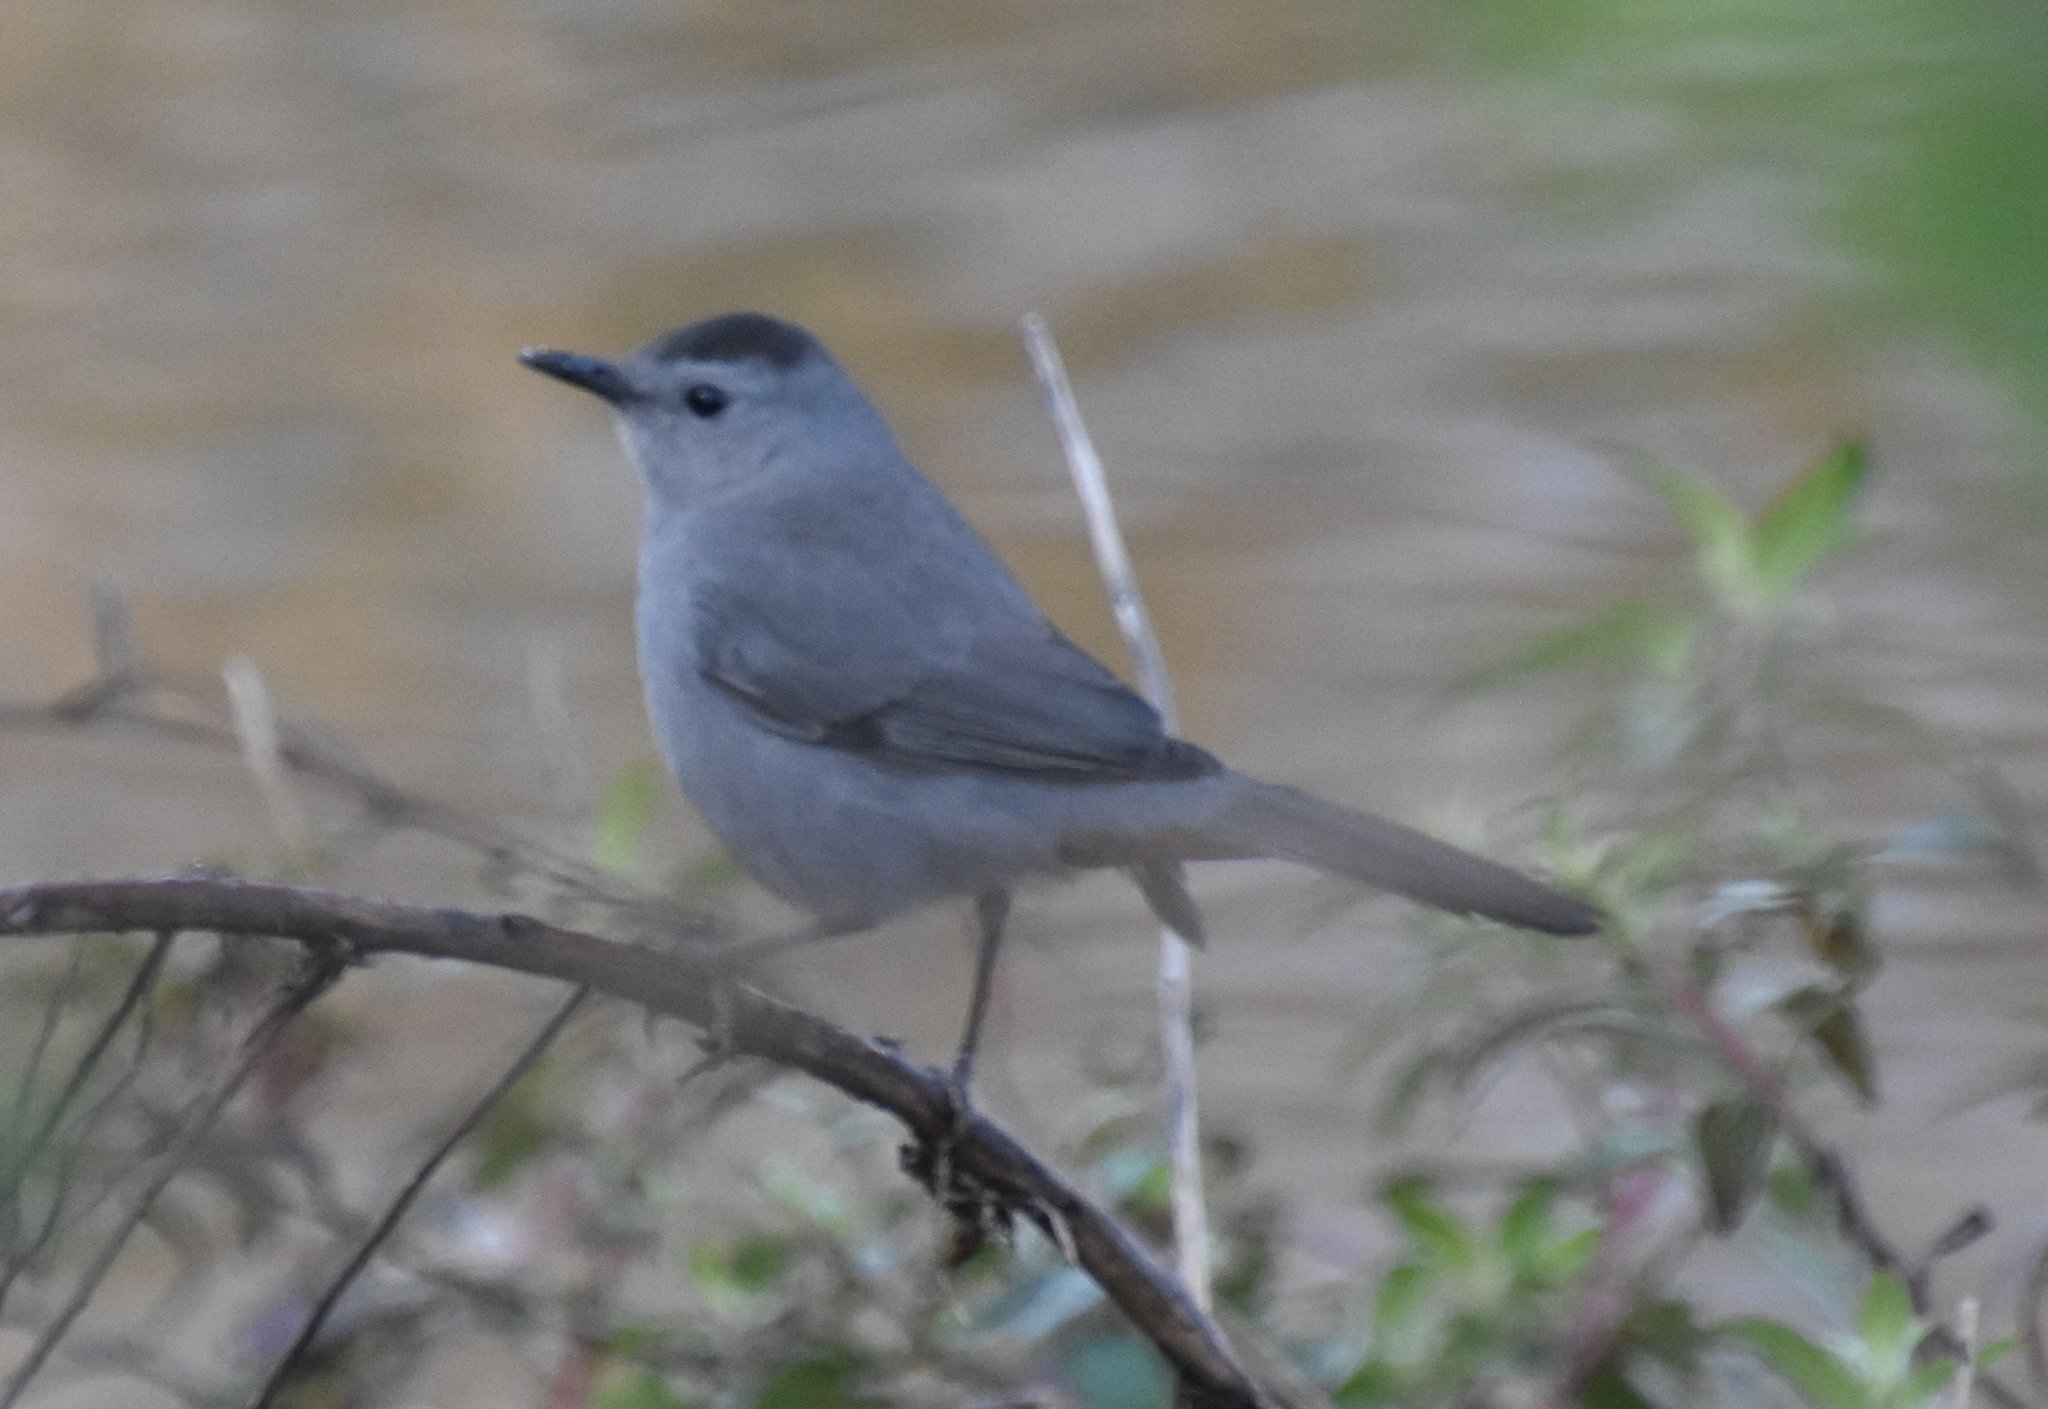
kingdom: Animalia
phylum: Chordata
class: Aves
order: Passeriformes
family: Mimidae
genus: Dumetella
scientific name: Dumetella carolinensis
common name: Gray catbird
